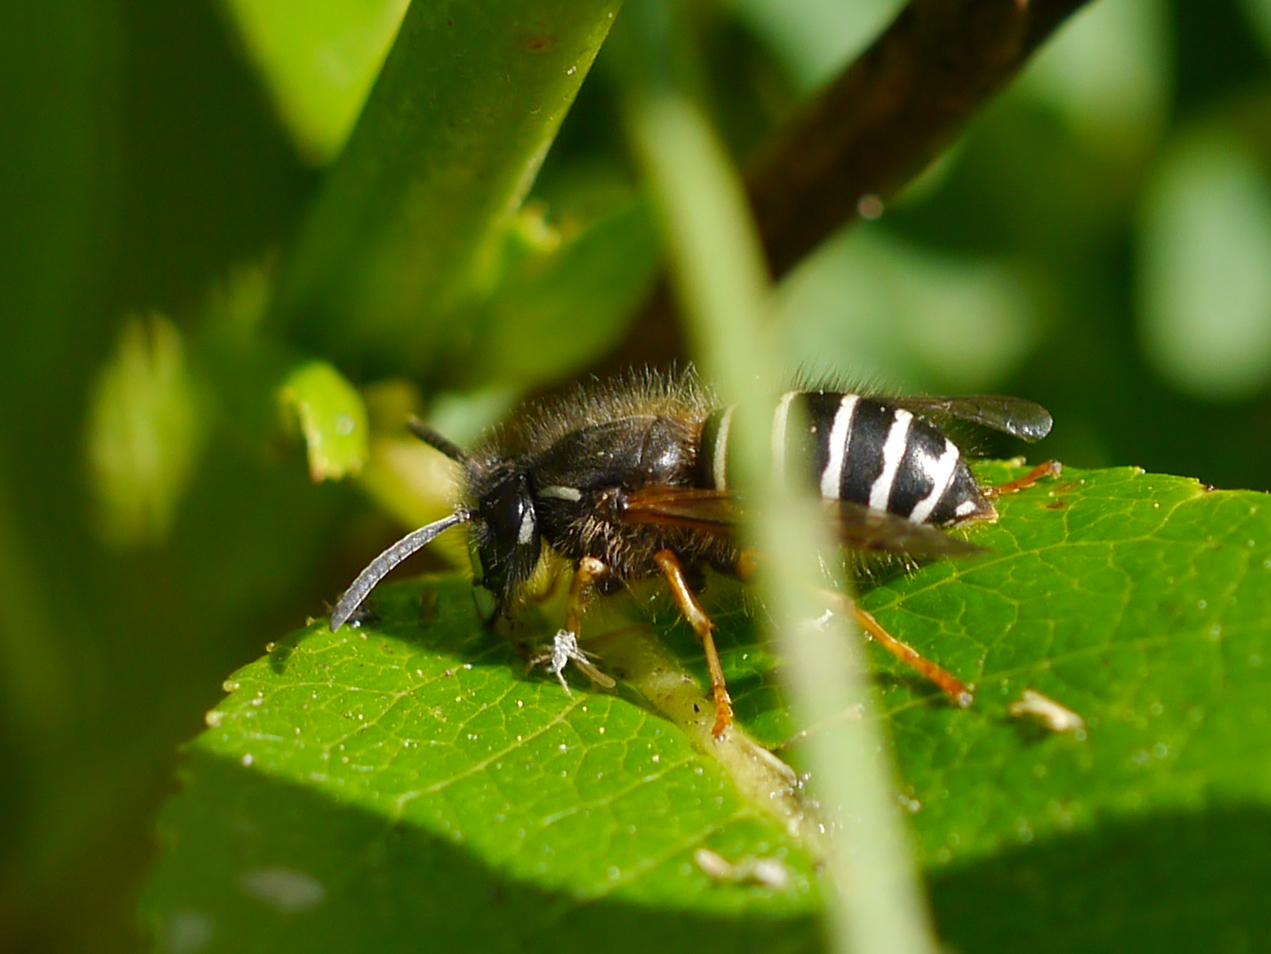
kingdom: Animalia
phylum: Arthropoda
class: Insecta
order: Hymenoptera
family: Vespidae
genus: Dolichovespula
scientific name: Dolichovespula norwegica
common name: Norwegian wasp
